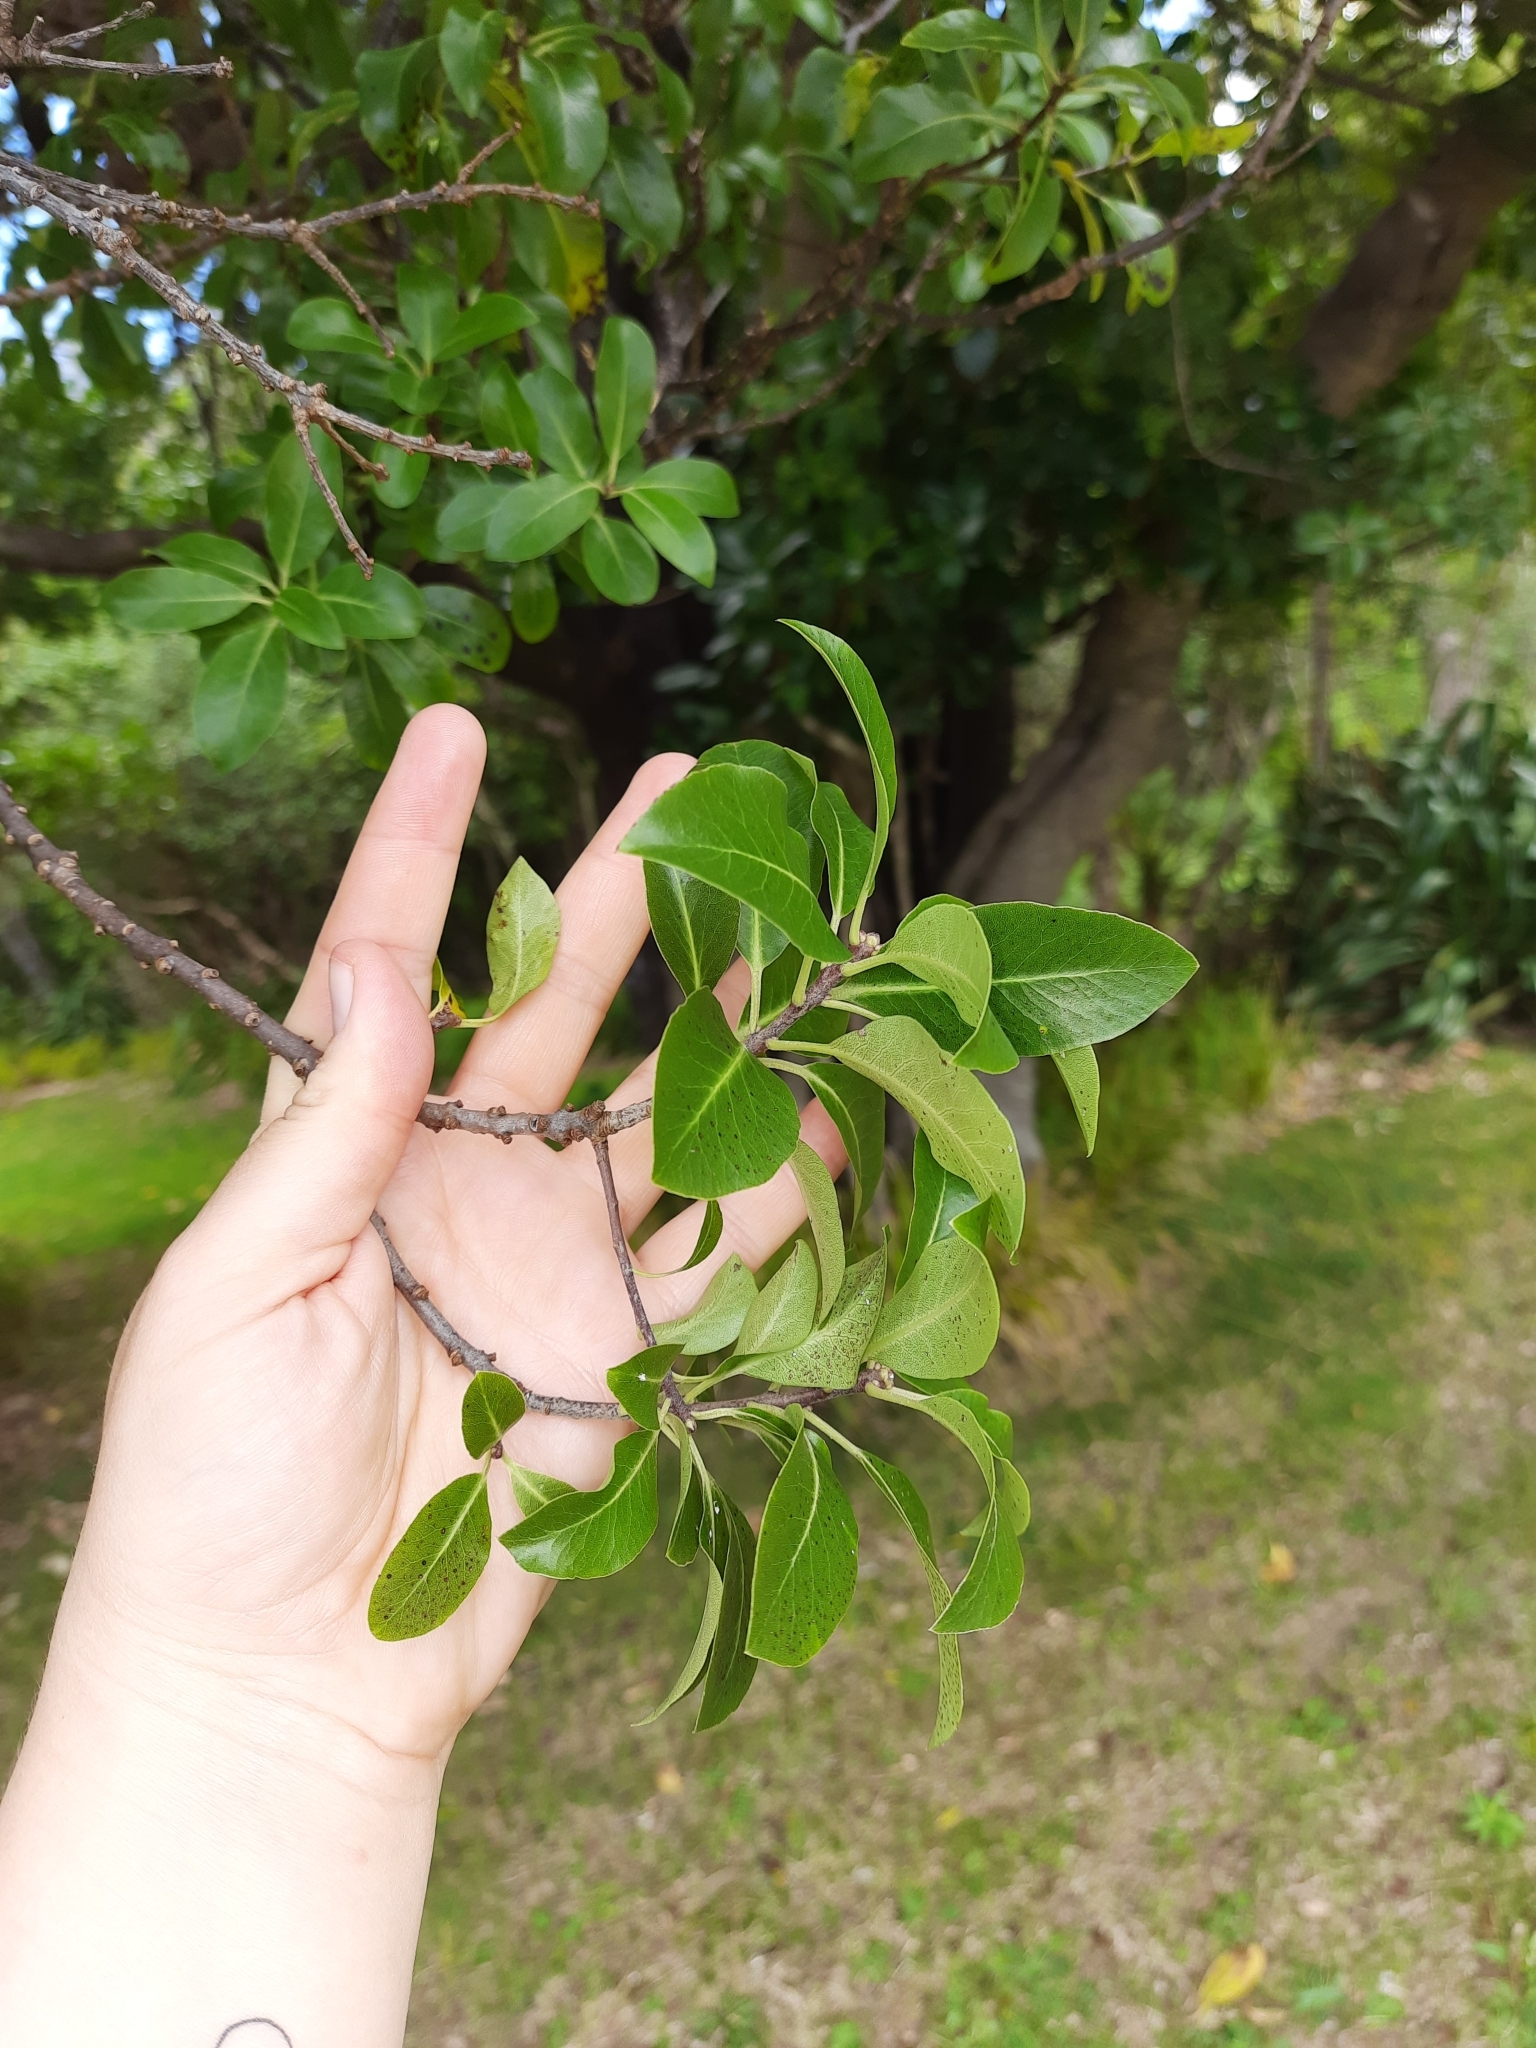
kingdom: Plantae
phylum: Tracheophyta
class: Magnoliopsida
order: Apiales
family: Pittosporaceae
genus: Pittosporum
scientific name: Pittosporum tenuifolium
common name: Kohuhu
